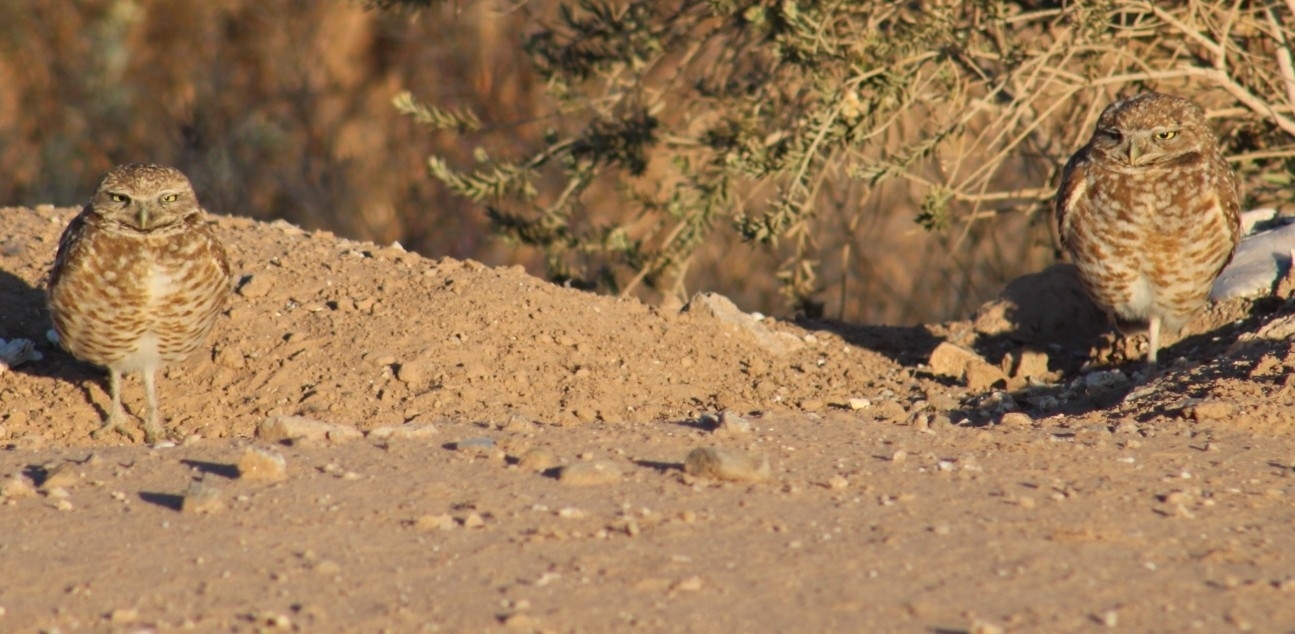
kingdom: Animalia
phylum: Chordata
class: Aves
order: Strigiformes
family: Strigidae
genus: Athene
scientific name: Athene cunicularia
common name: Burrowing owl
